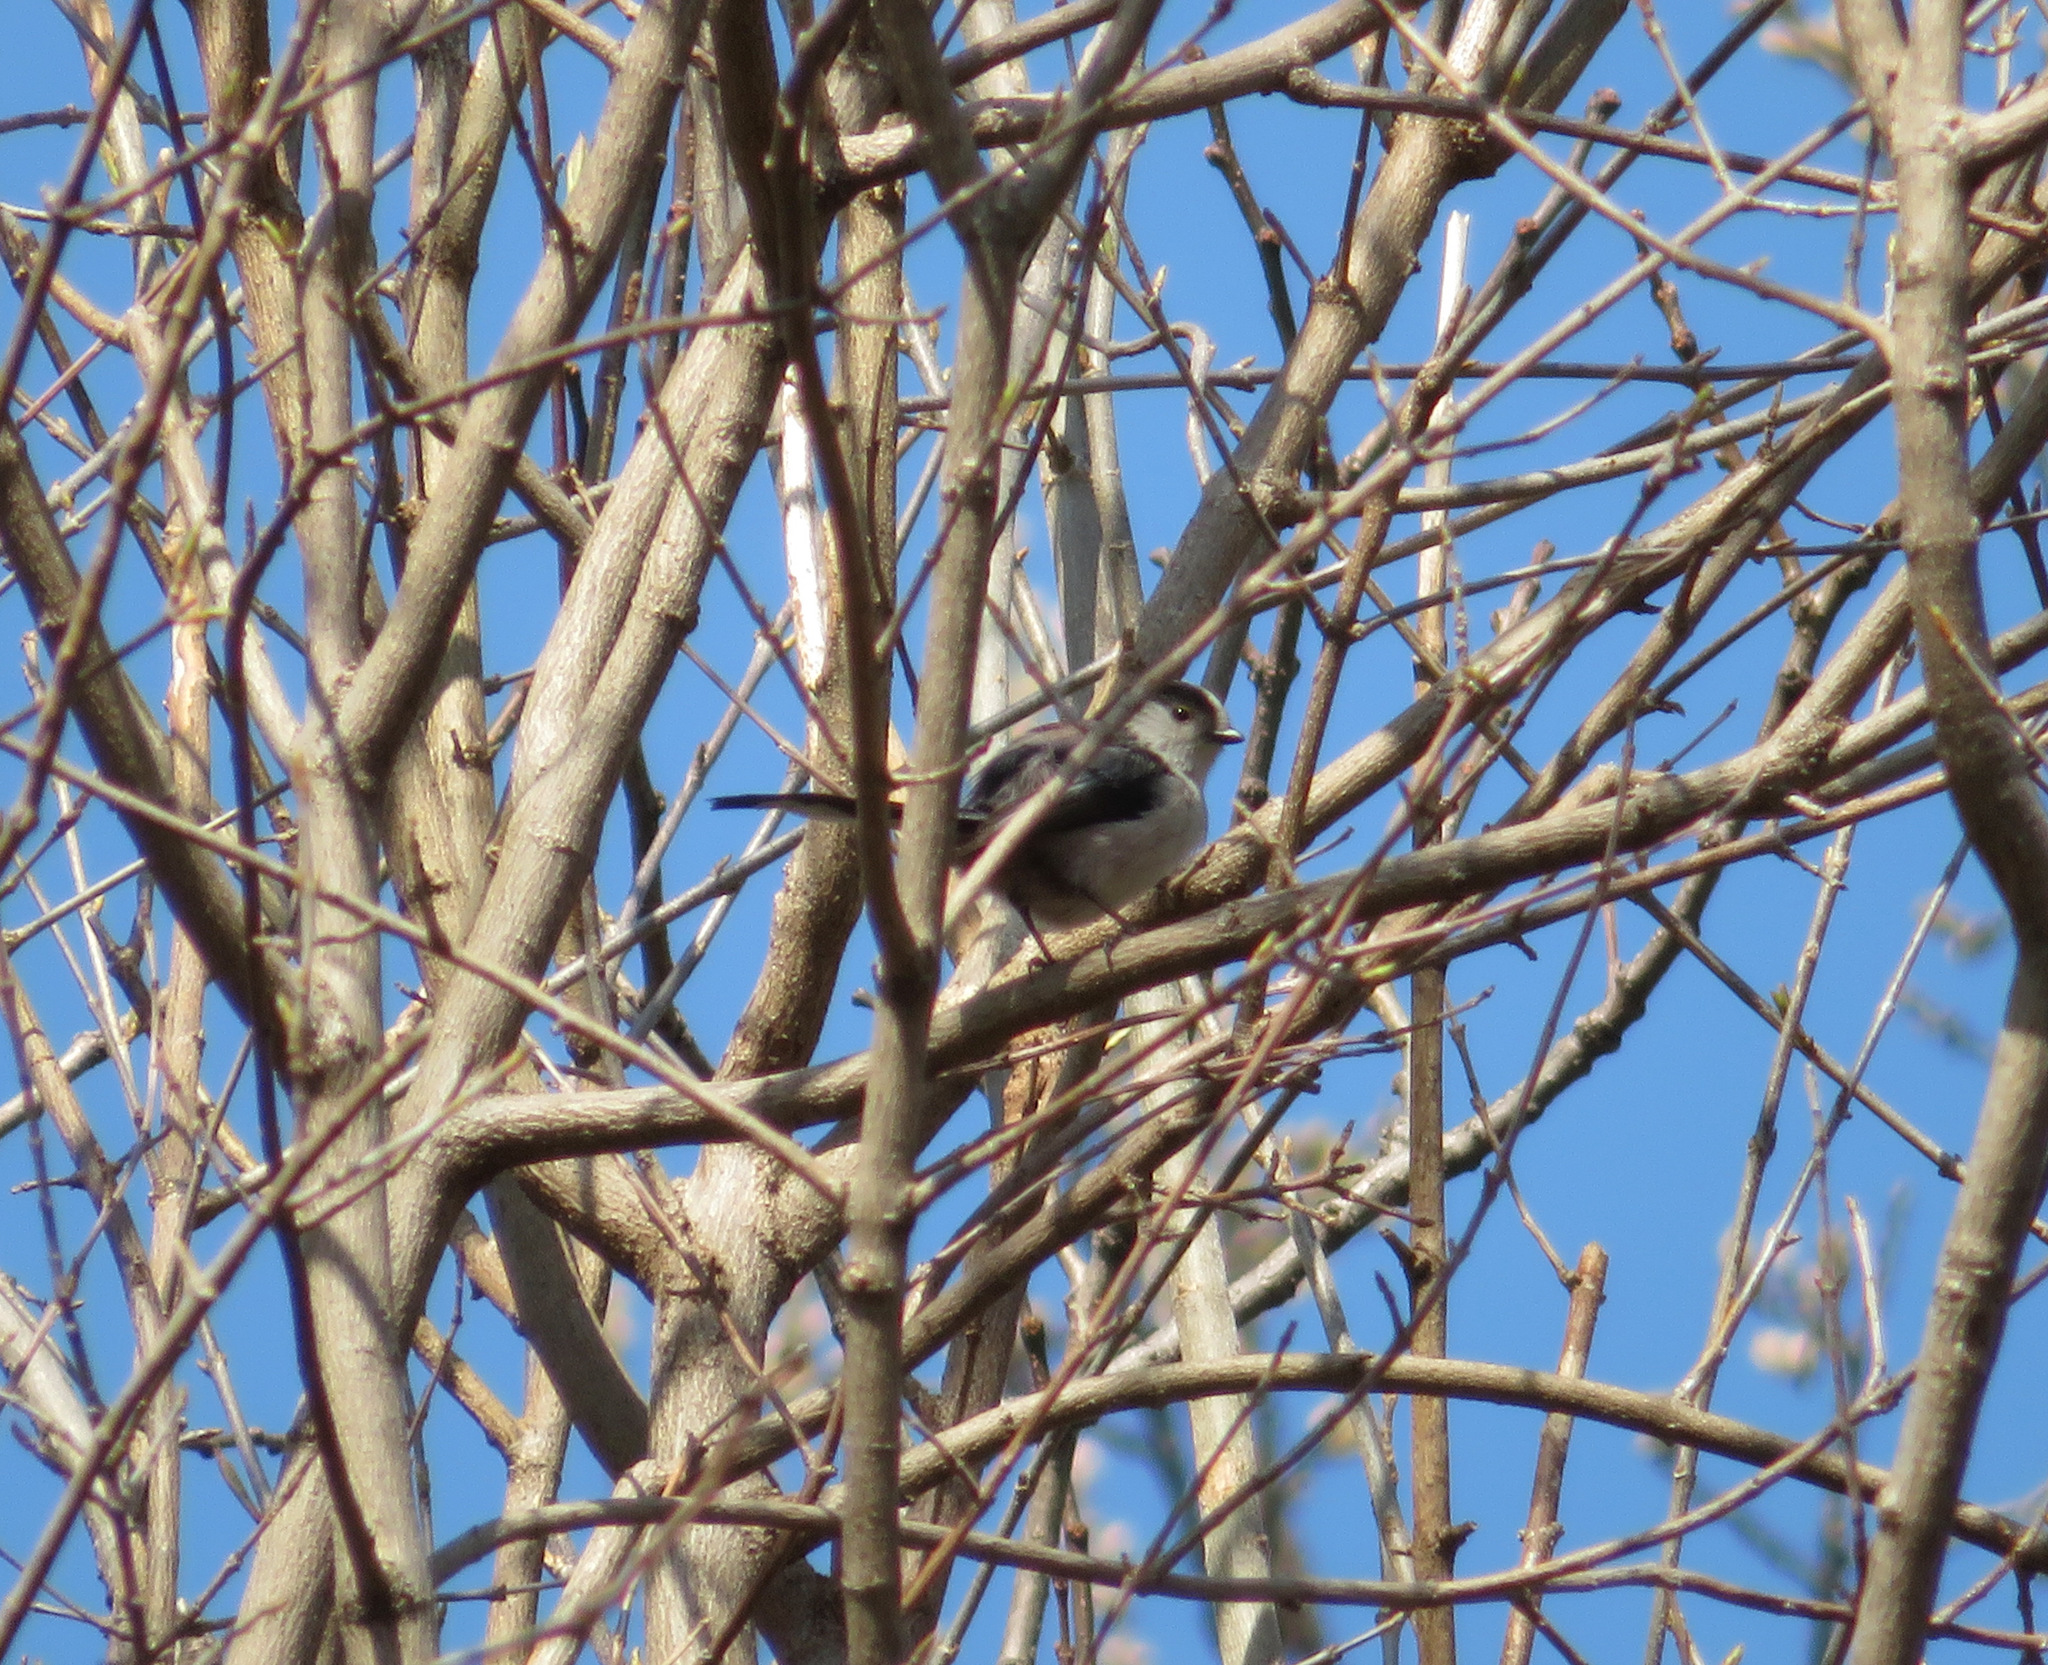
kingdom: Animalia
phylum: Chordata
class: Aves
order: Passeriformes
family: Aegithalidae
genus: Aegithalos
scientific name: Aegithalos caudatus
